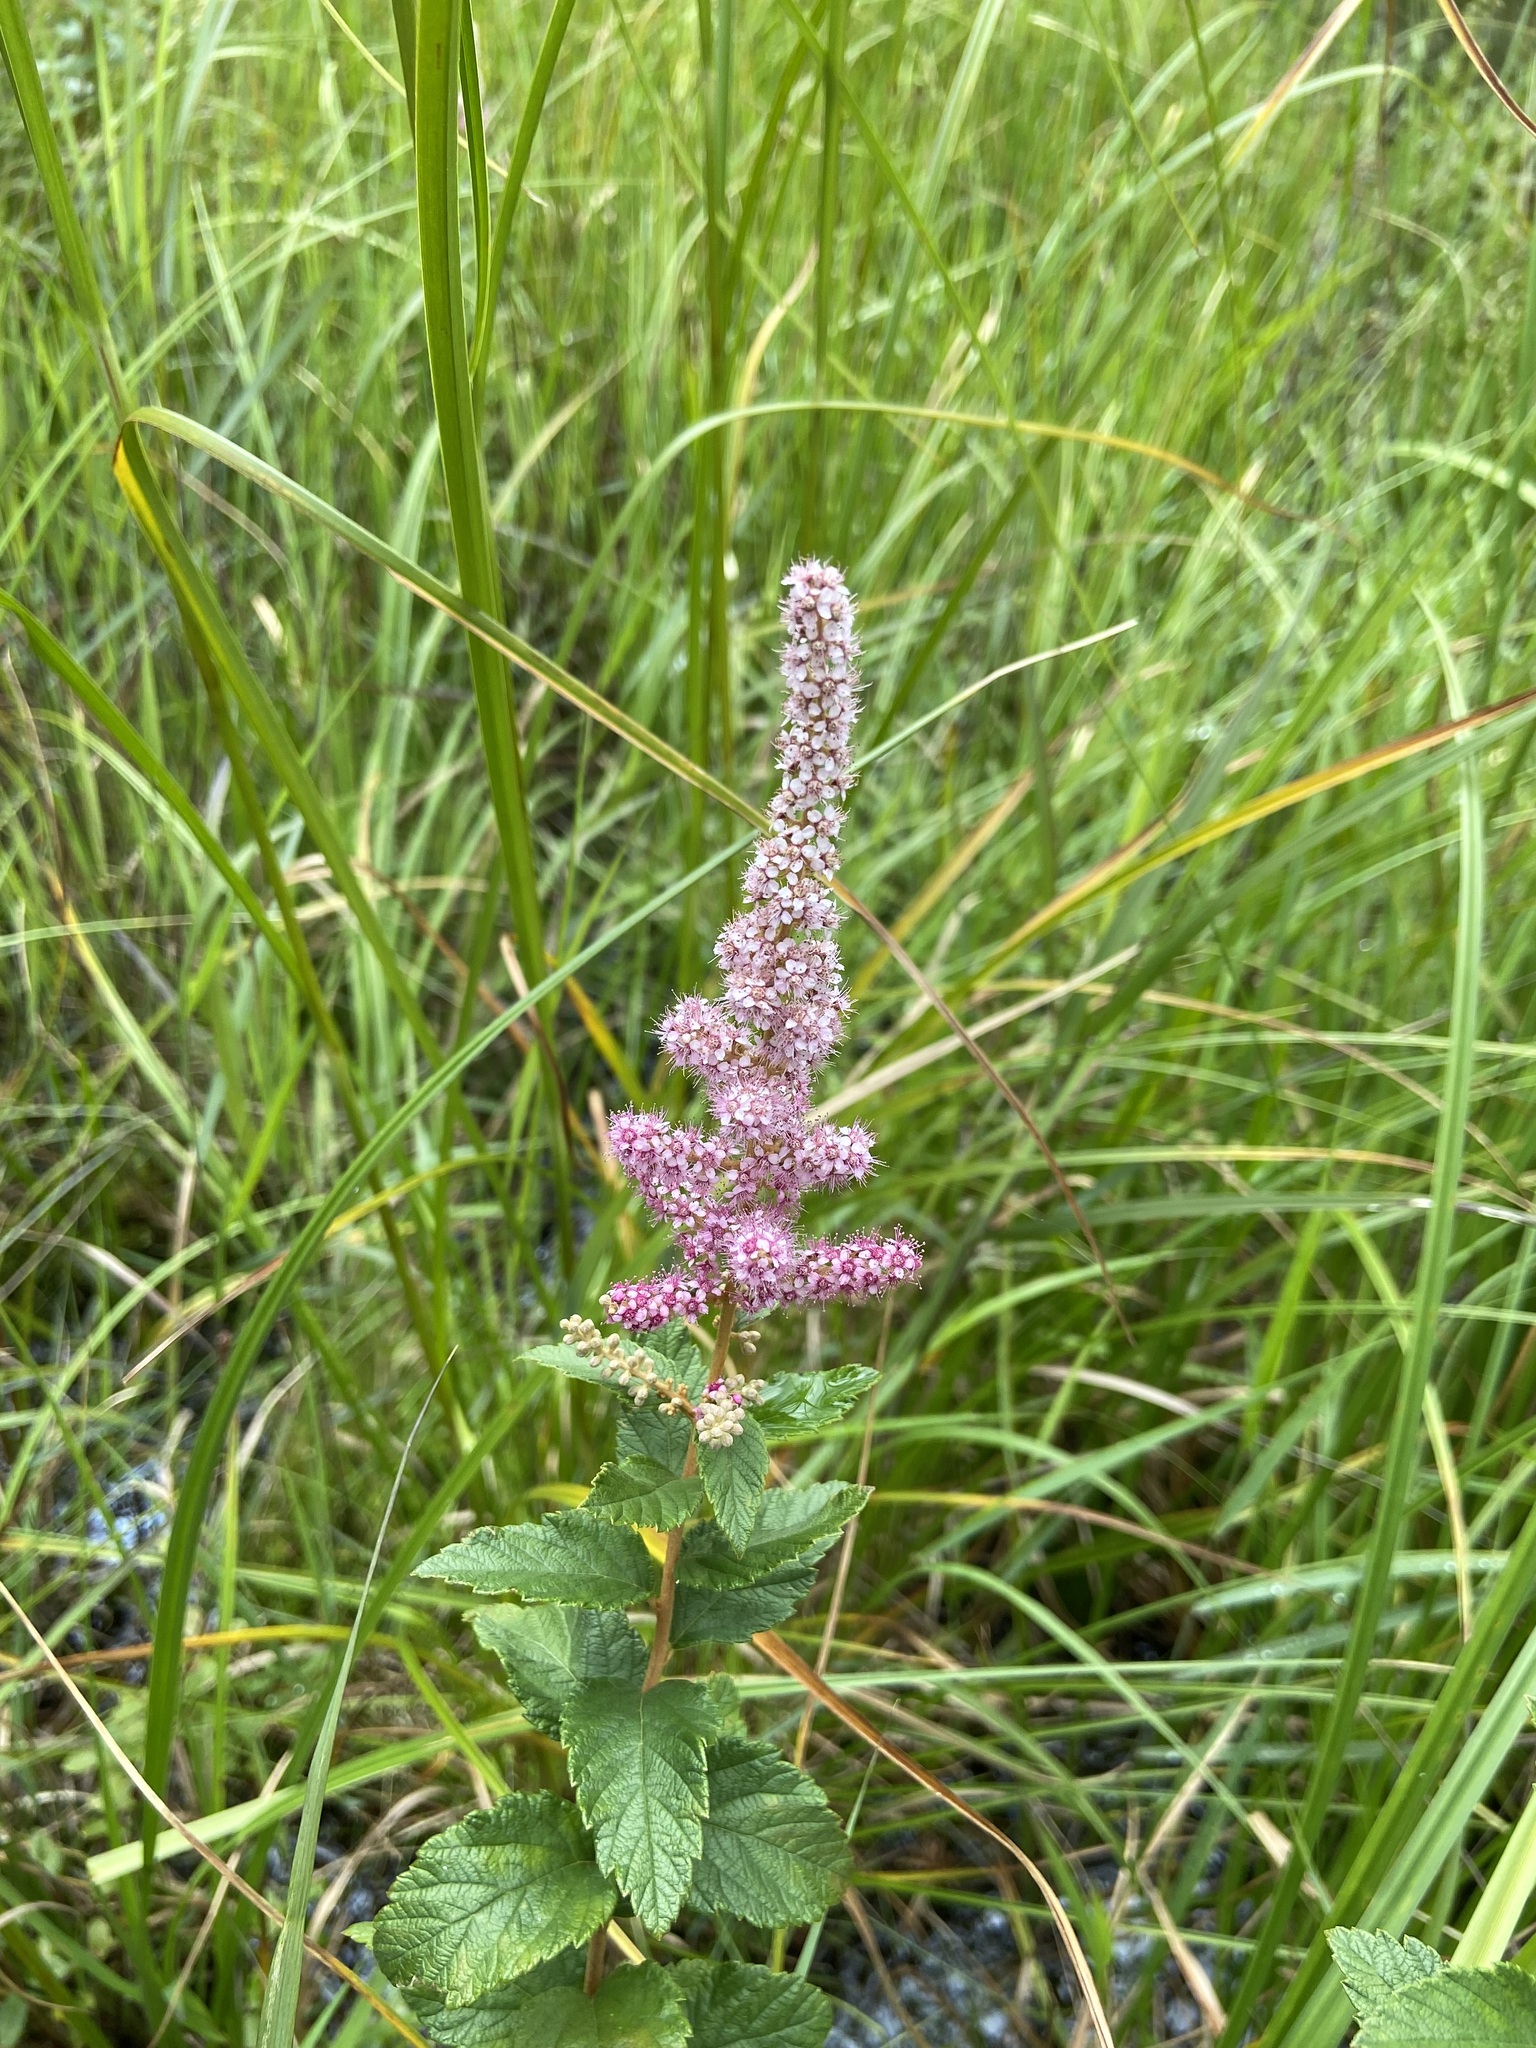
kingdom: Plantae
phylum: Tracheophyta
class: Magnoliopsida
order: Rosales
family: Rosaceae
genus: Spiraea
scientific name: Spiraea tomentosa
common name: Hardhack
